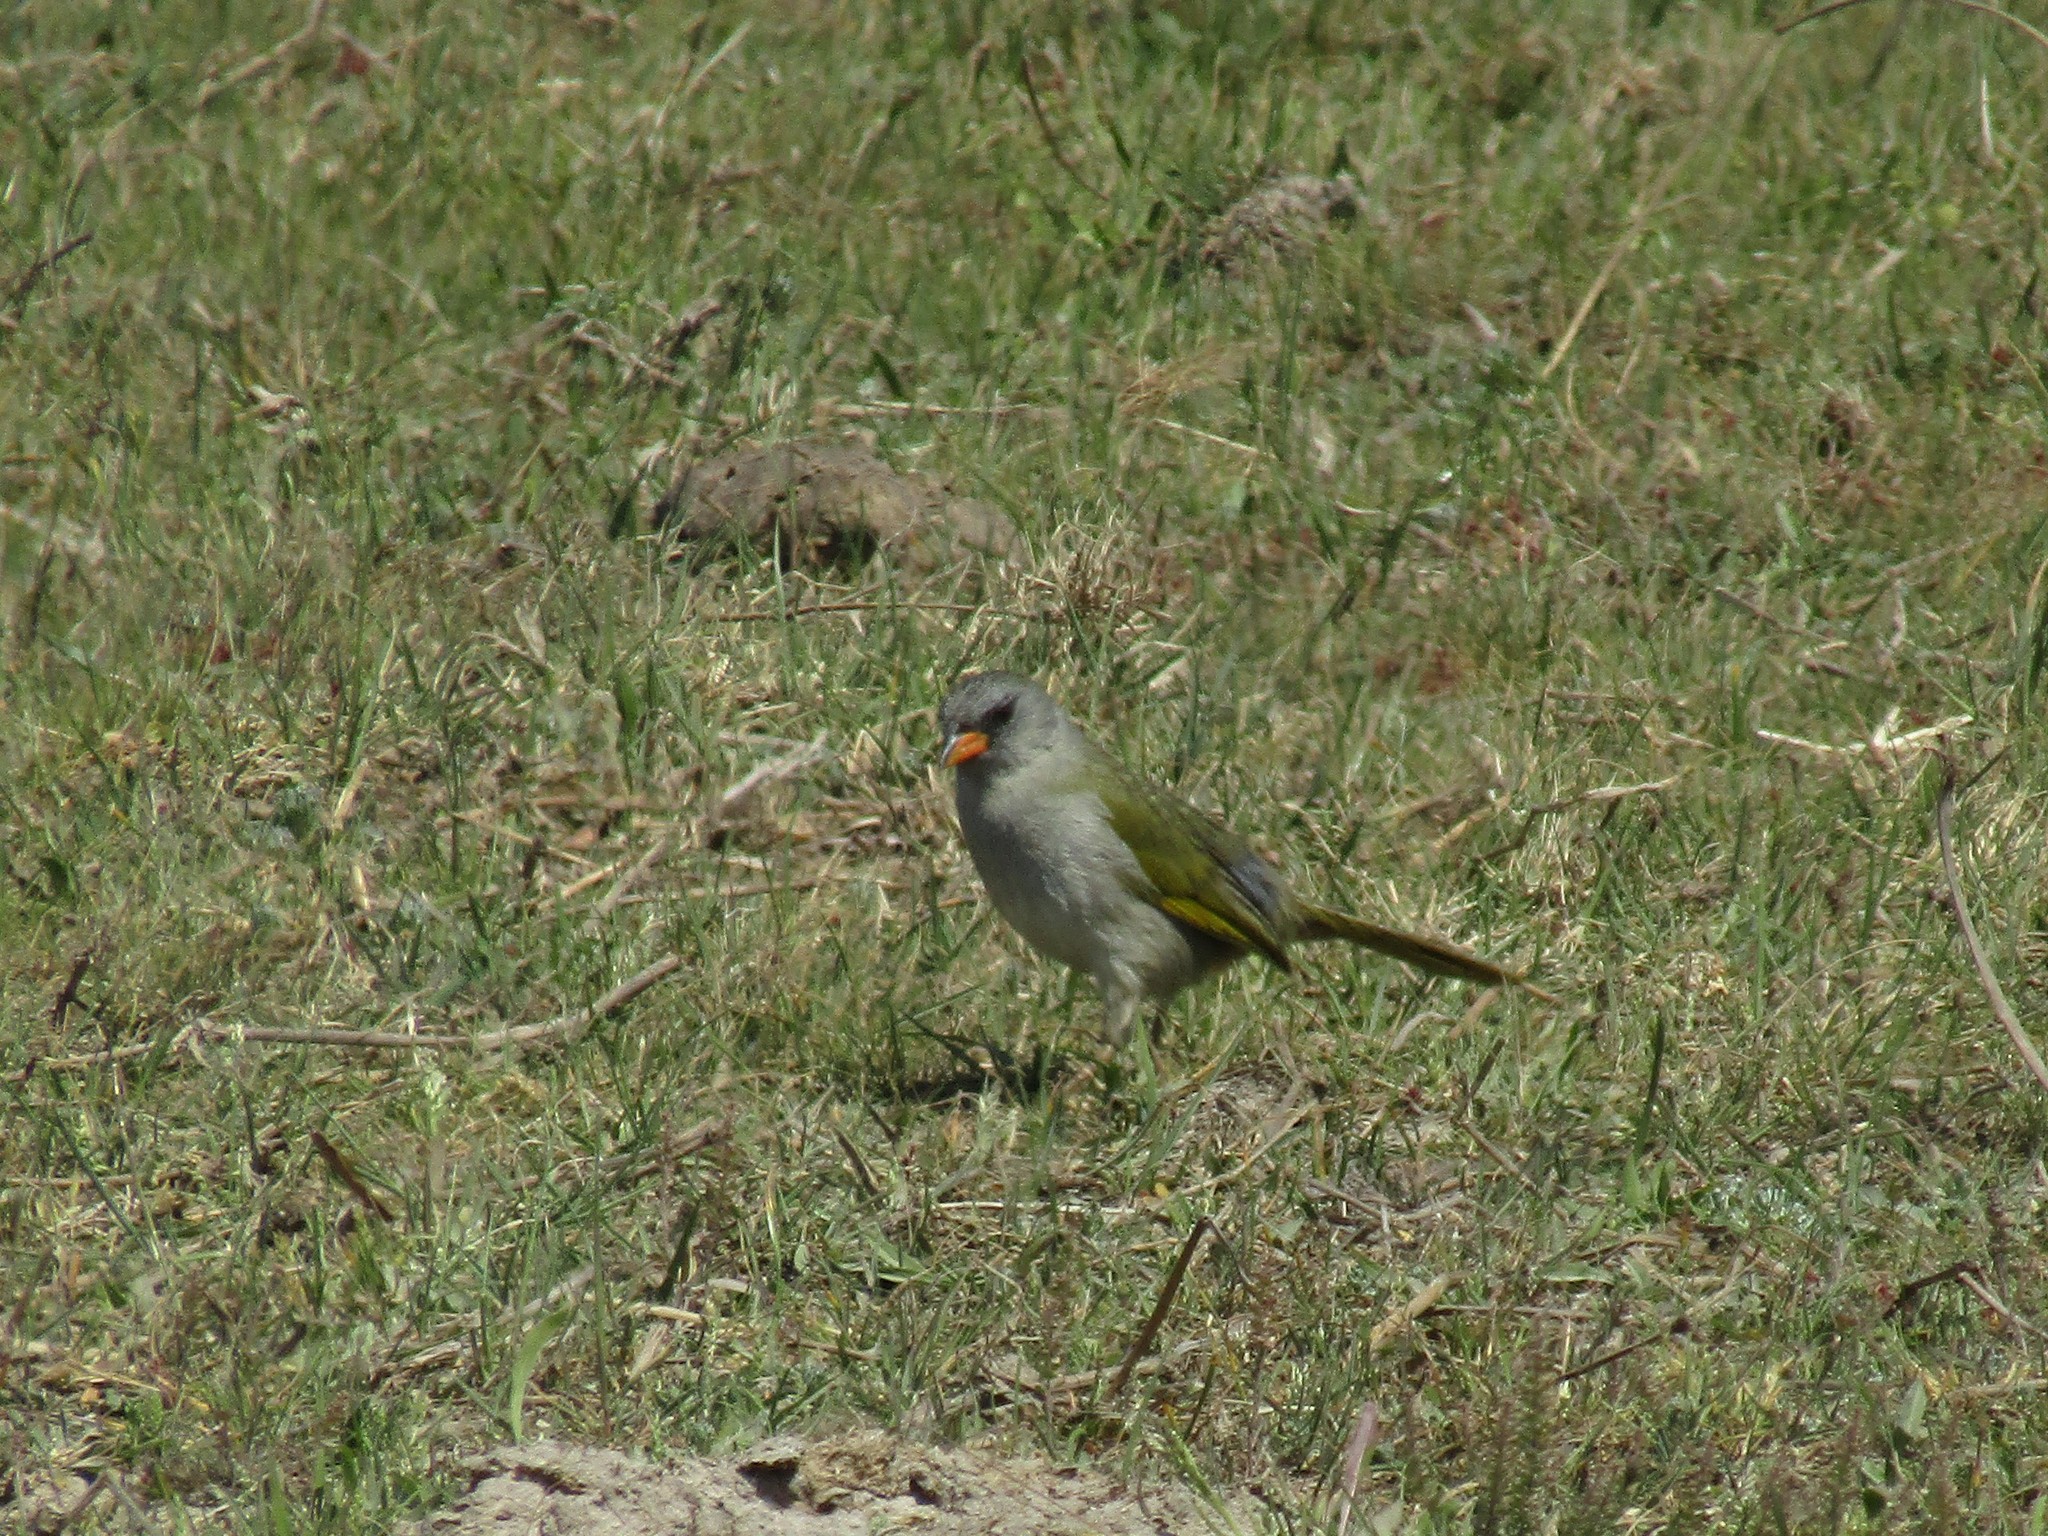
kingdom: Animalia
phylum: Chordata
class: Aves
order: Passeriformes
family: Thraupidae
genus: Embernagra
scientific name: Embernagra platensis
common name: Pampa finch
